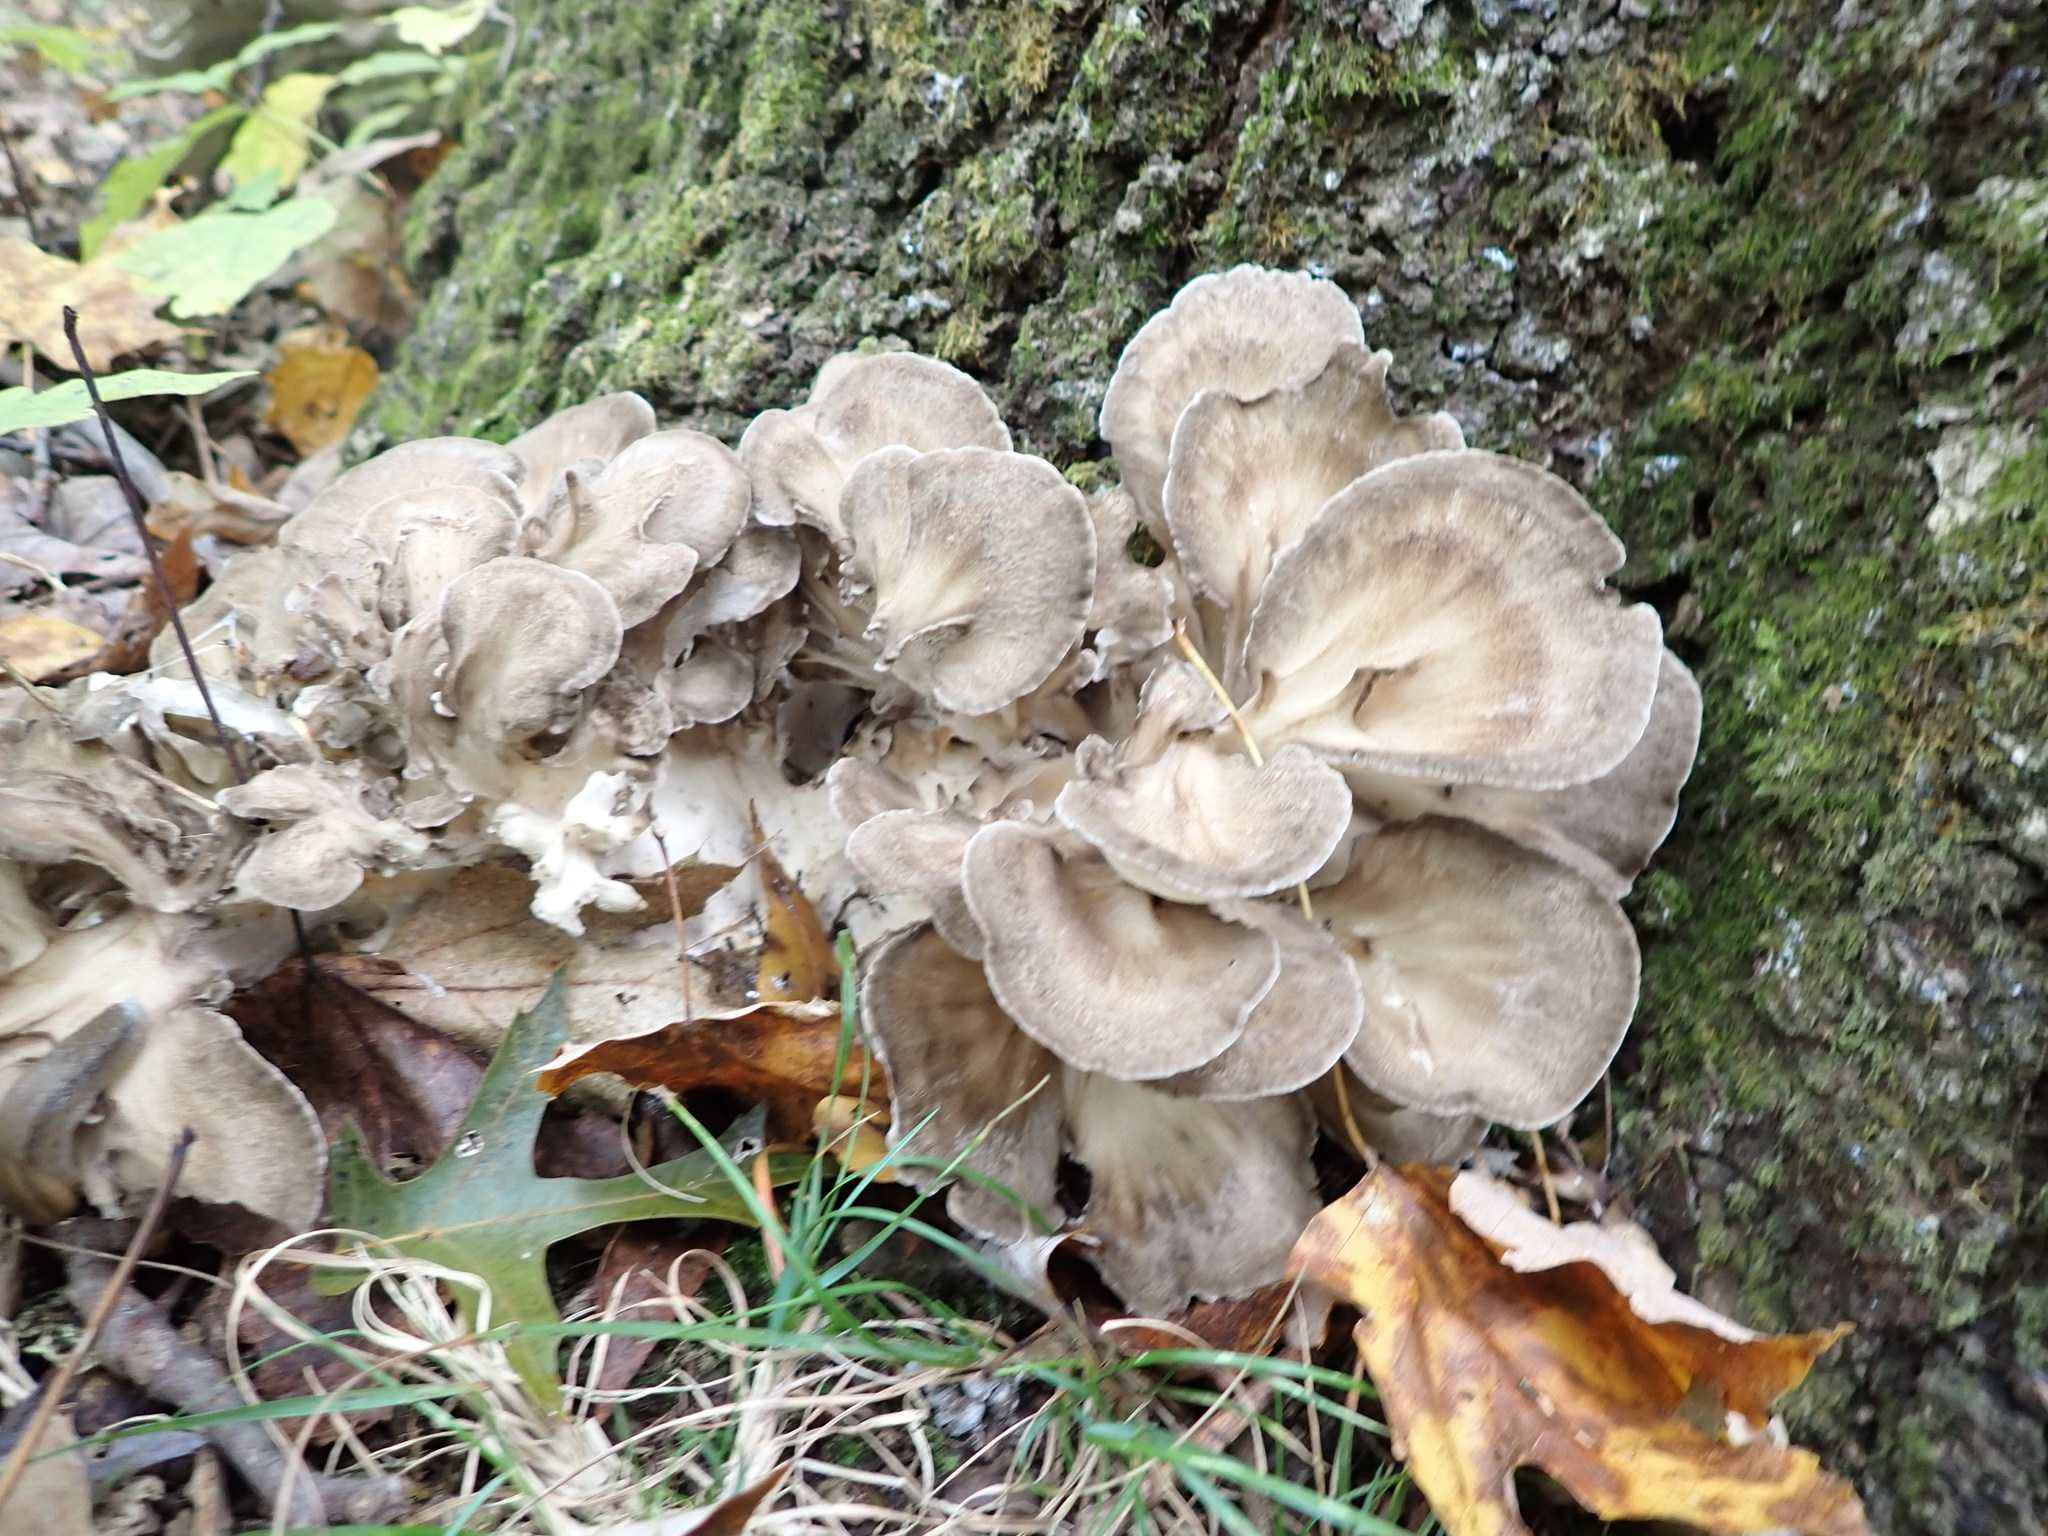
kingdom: Fungi
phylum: Basidiomycota
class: Agaricomycetes
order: Polyporales
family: Grifolaceae
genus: Grifola
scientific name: Grifola frondosa
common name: Hen of the woods
